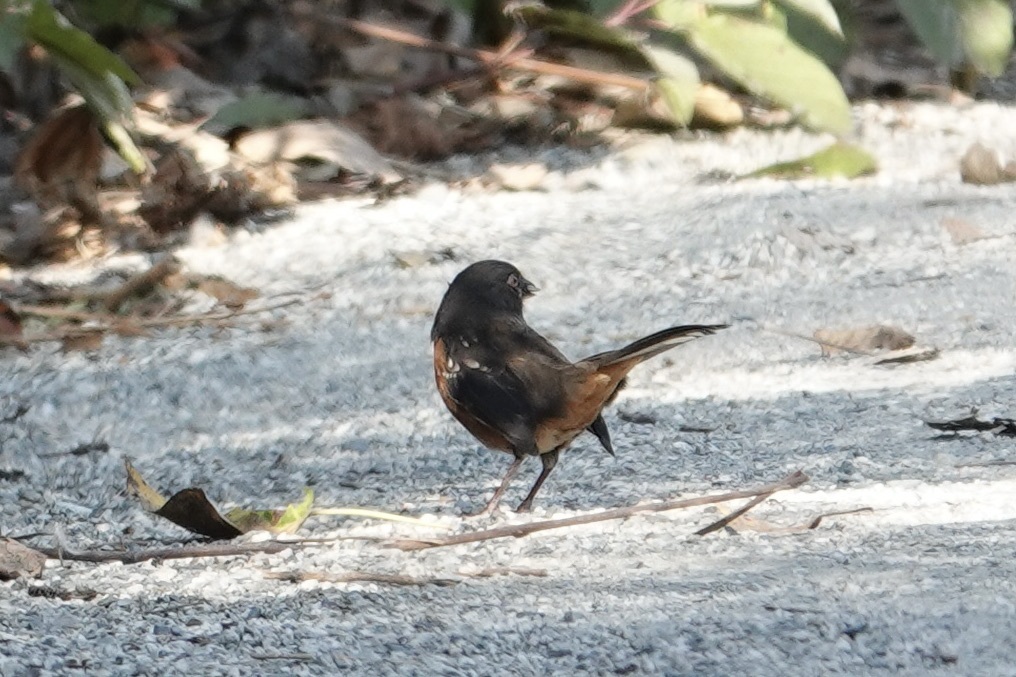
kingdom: Animalia
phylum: Chordata
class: Aves
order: Passeriformes
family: Passerellidae
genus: Pipilo
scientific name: Pipilo maculatus
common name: Spotted towhee
